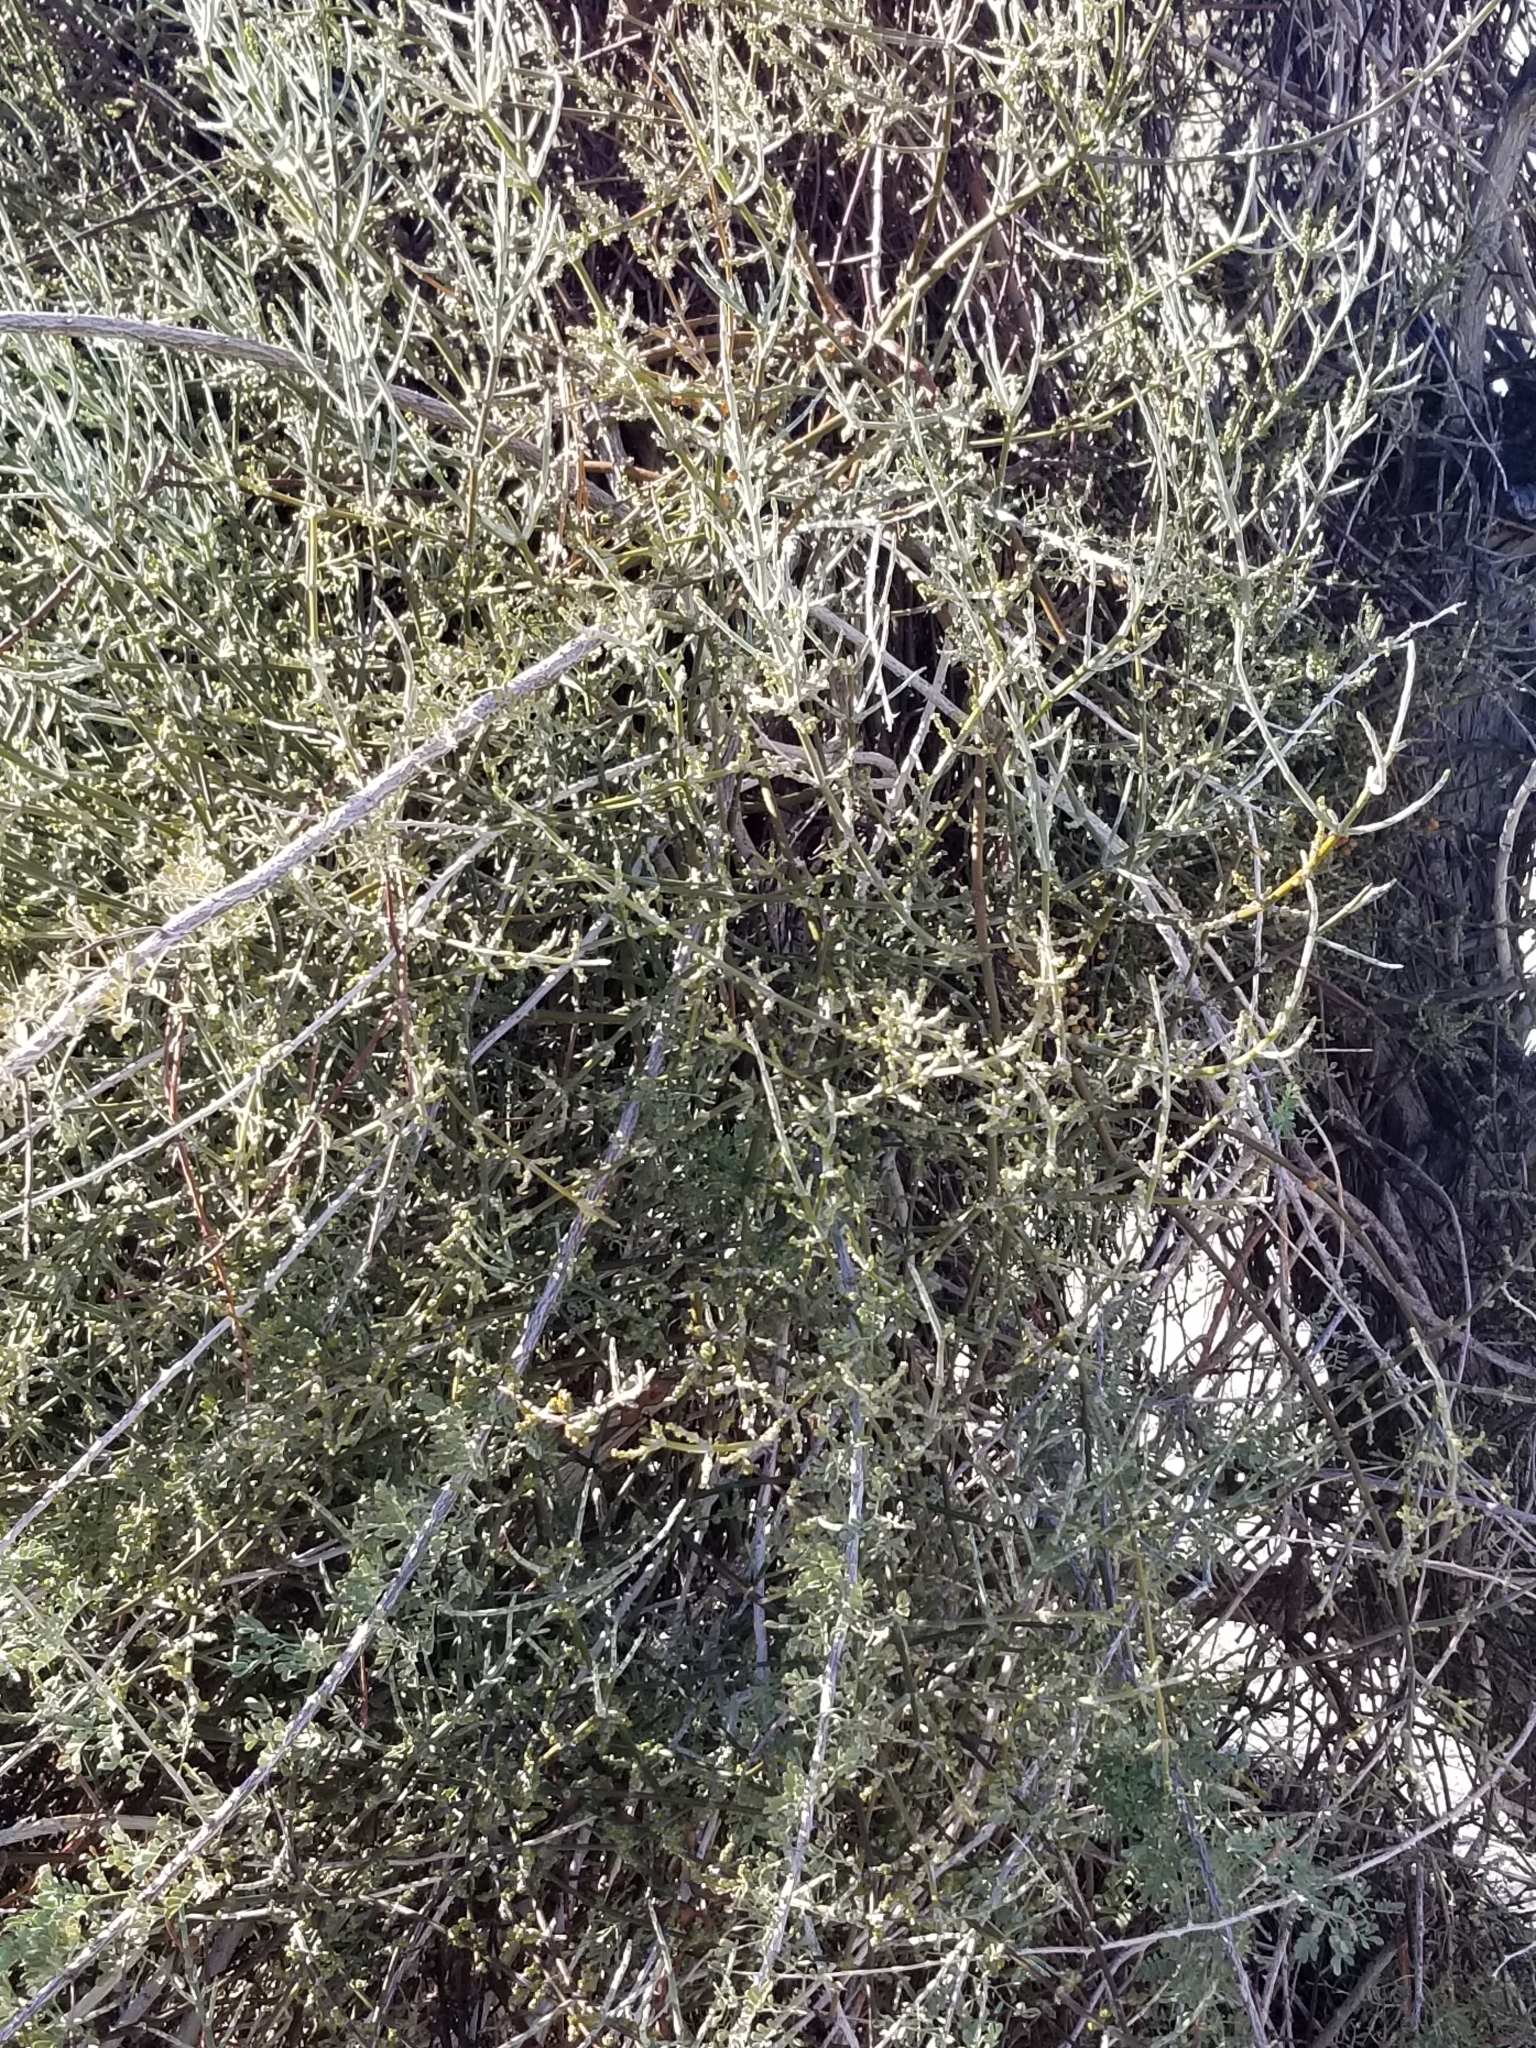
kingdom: Plantae
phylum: Tracheophyta
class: Magnoliopsida
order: Santalales
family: Viscaceae
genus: Phoradendron
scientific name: Phoradendron californicum
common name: Acacia mistletoe
